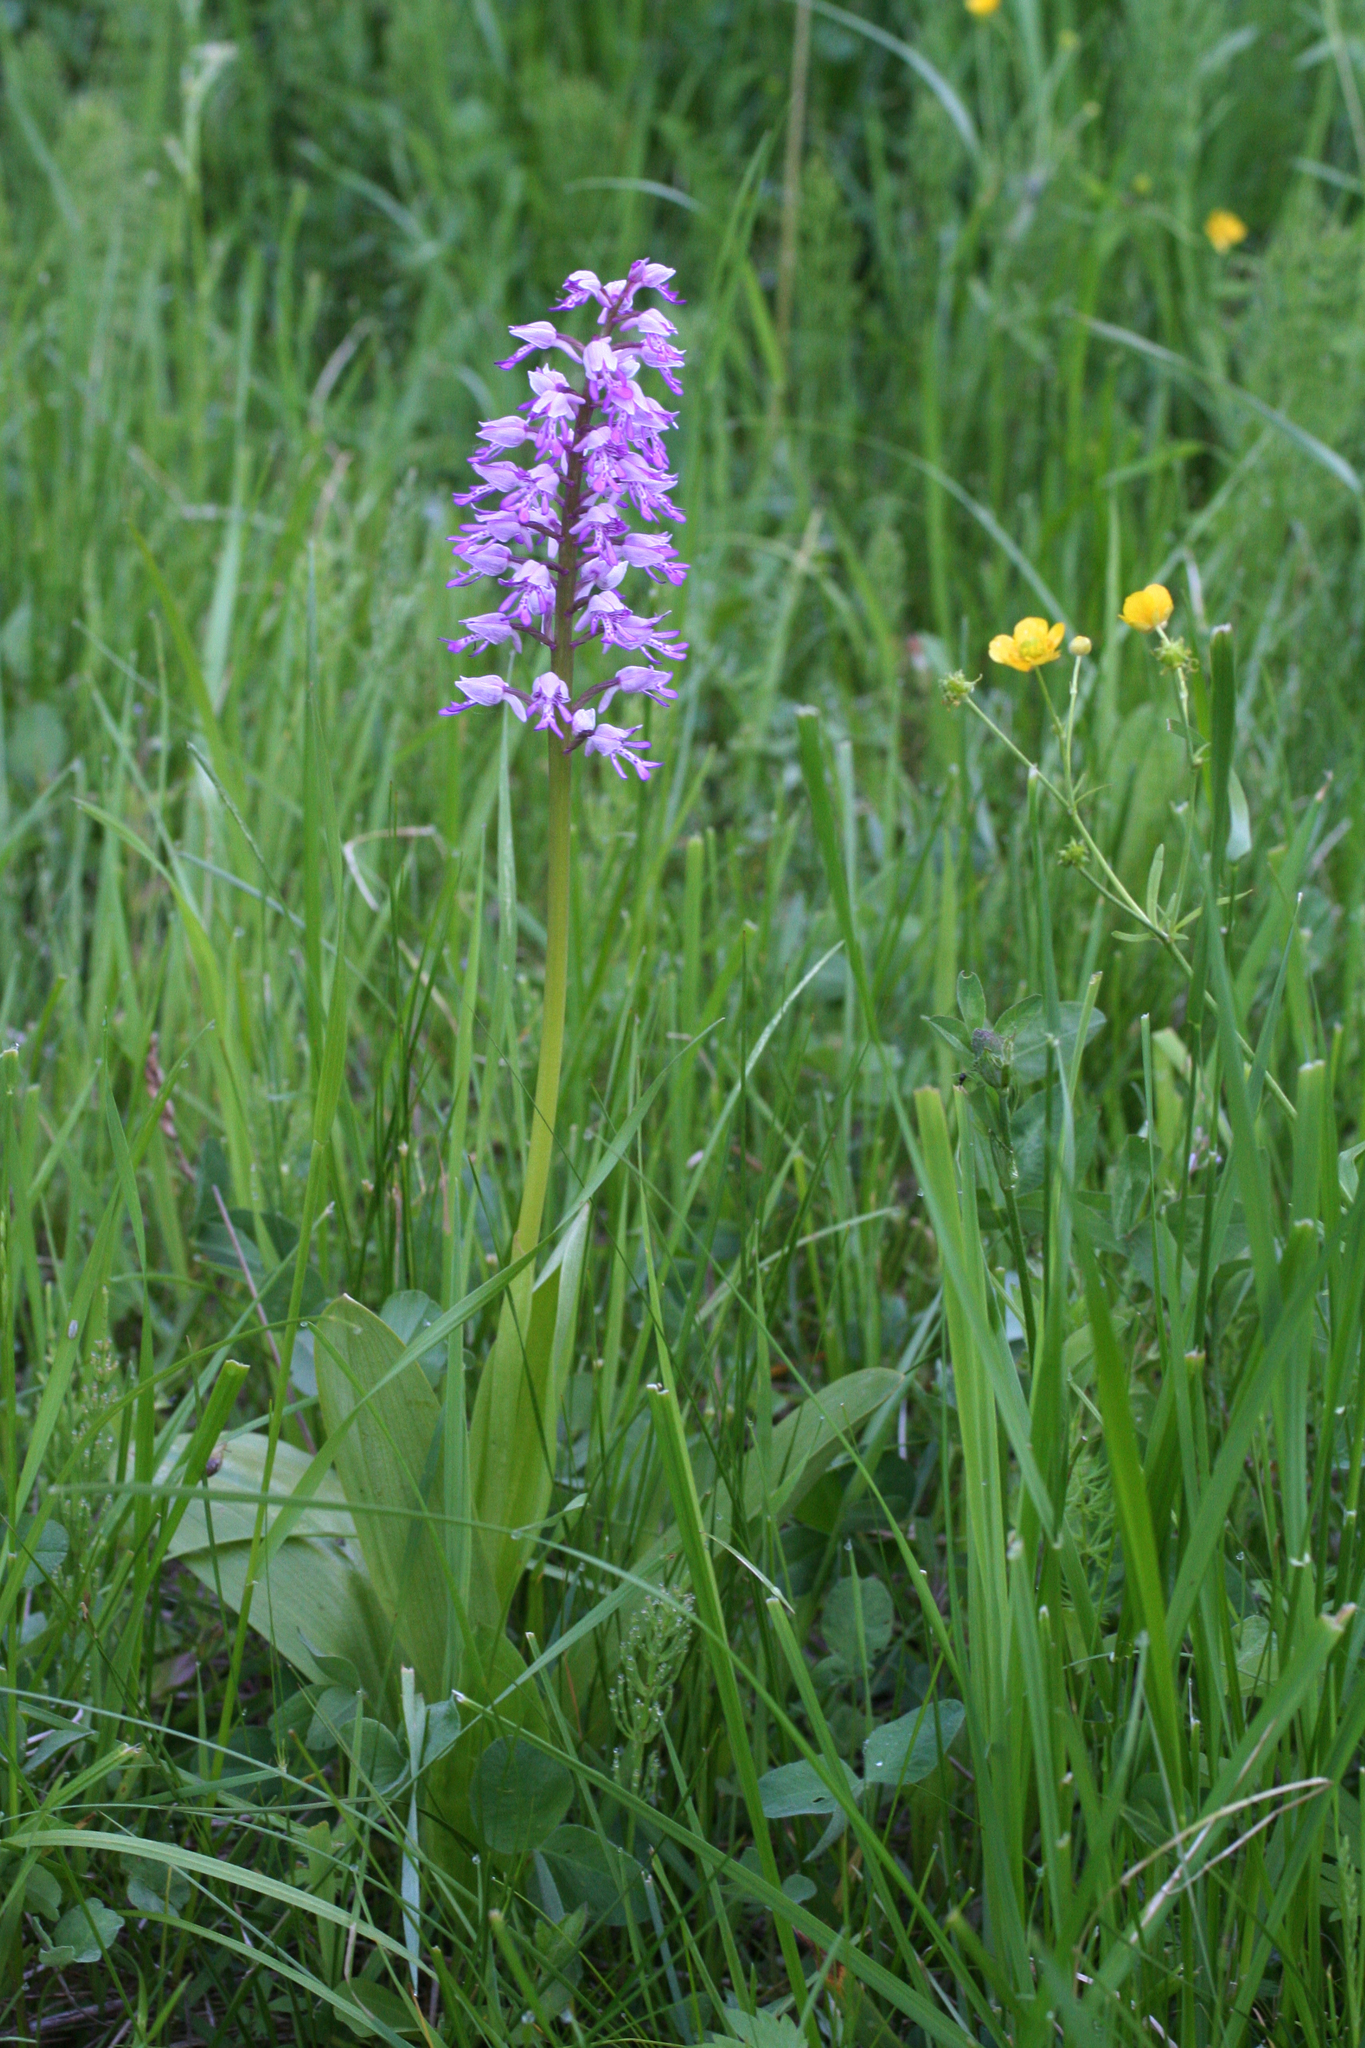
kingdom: Plantae
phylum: Tracheophyta
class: Liliopsida
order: Asparagales
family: Orchidaceae
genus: Orchis
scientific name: Orchis militaris
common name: Military orchid
